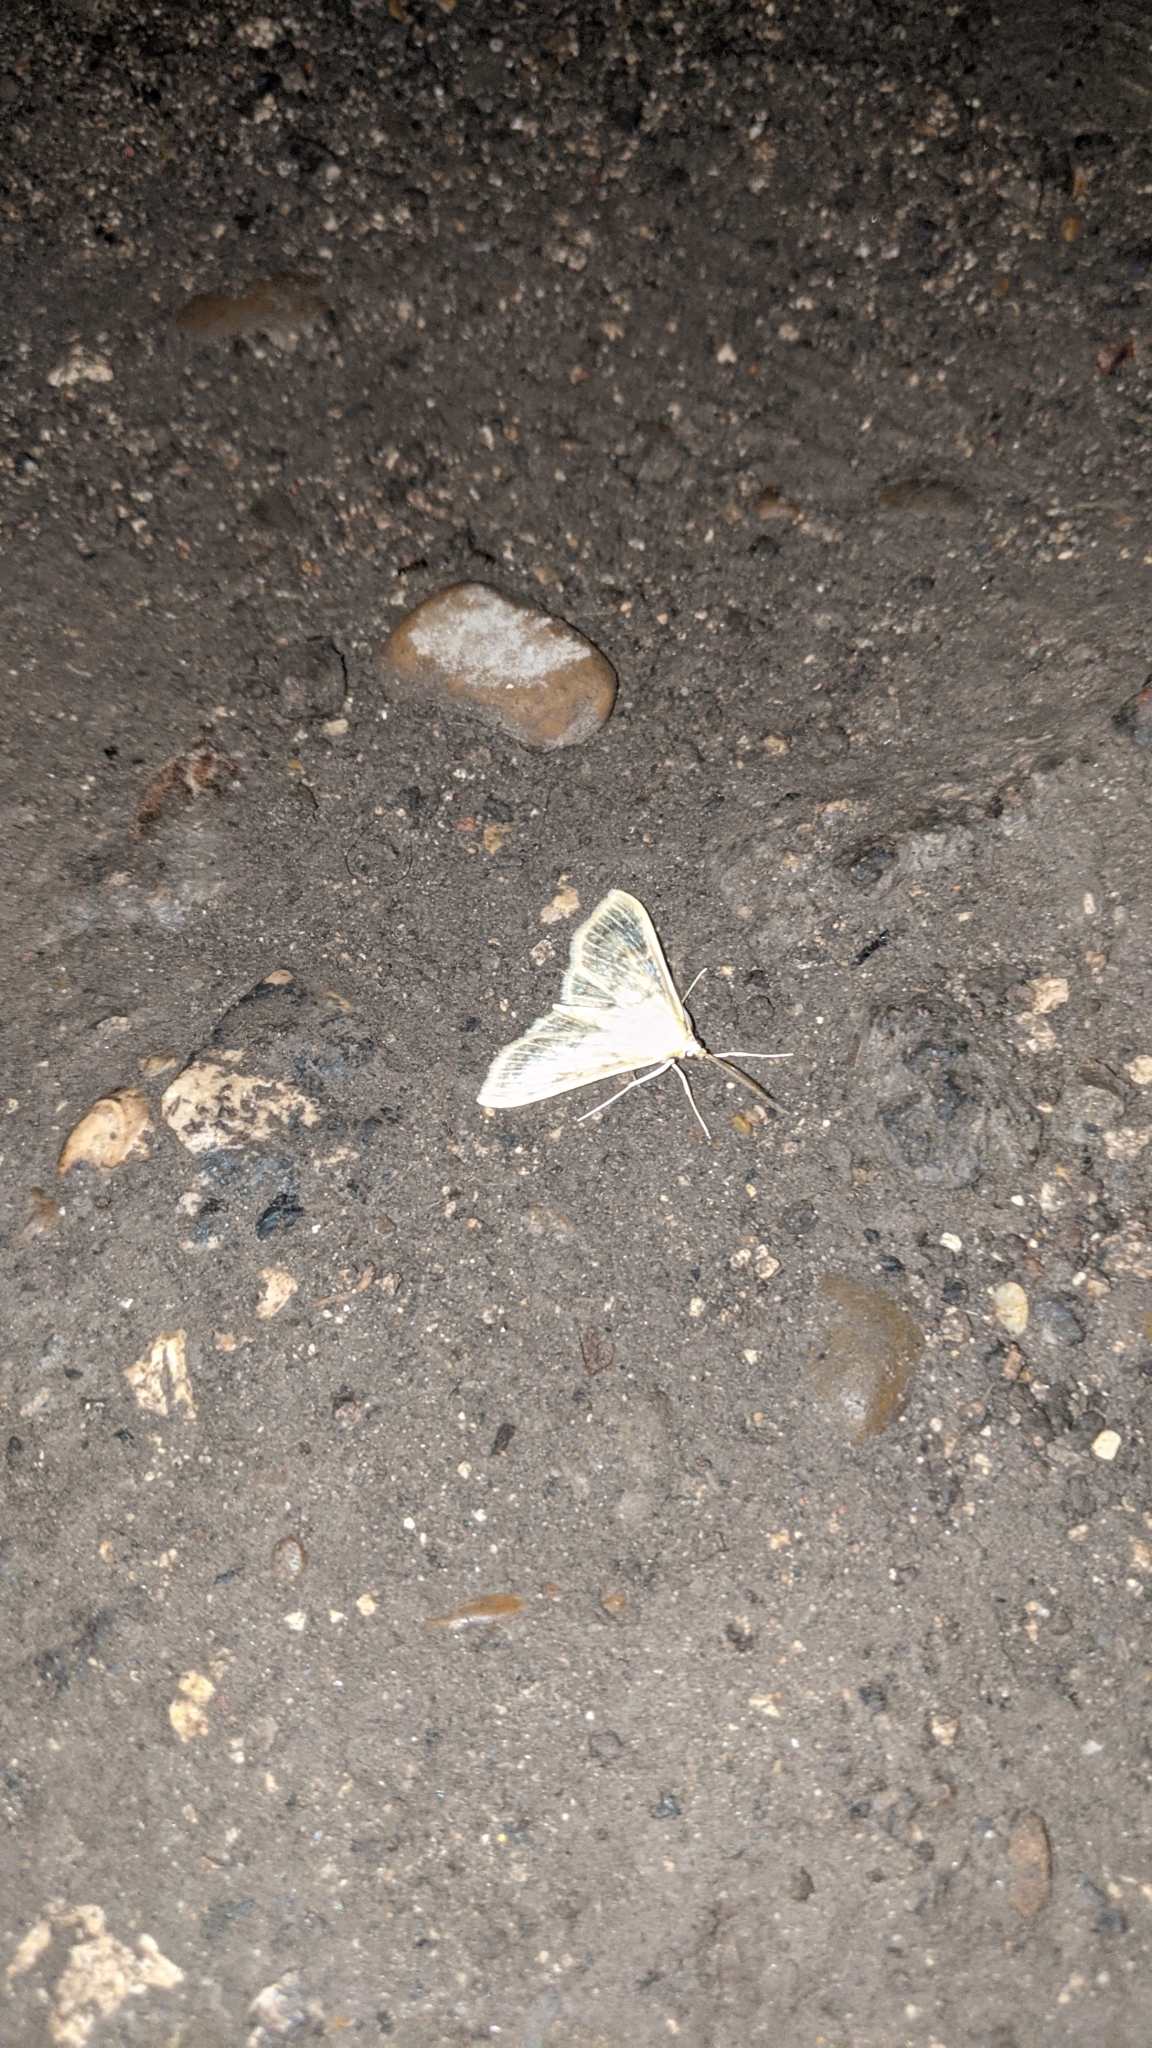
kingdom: Animalia
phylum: Arthropoda
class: Insecta
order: Lepidoptera
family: Crambidae
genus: Patania
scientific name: Patania ruralis
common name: Mother of pearl
